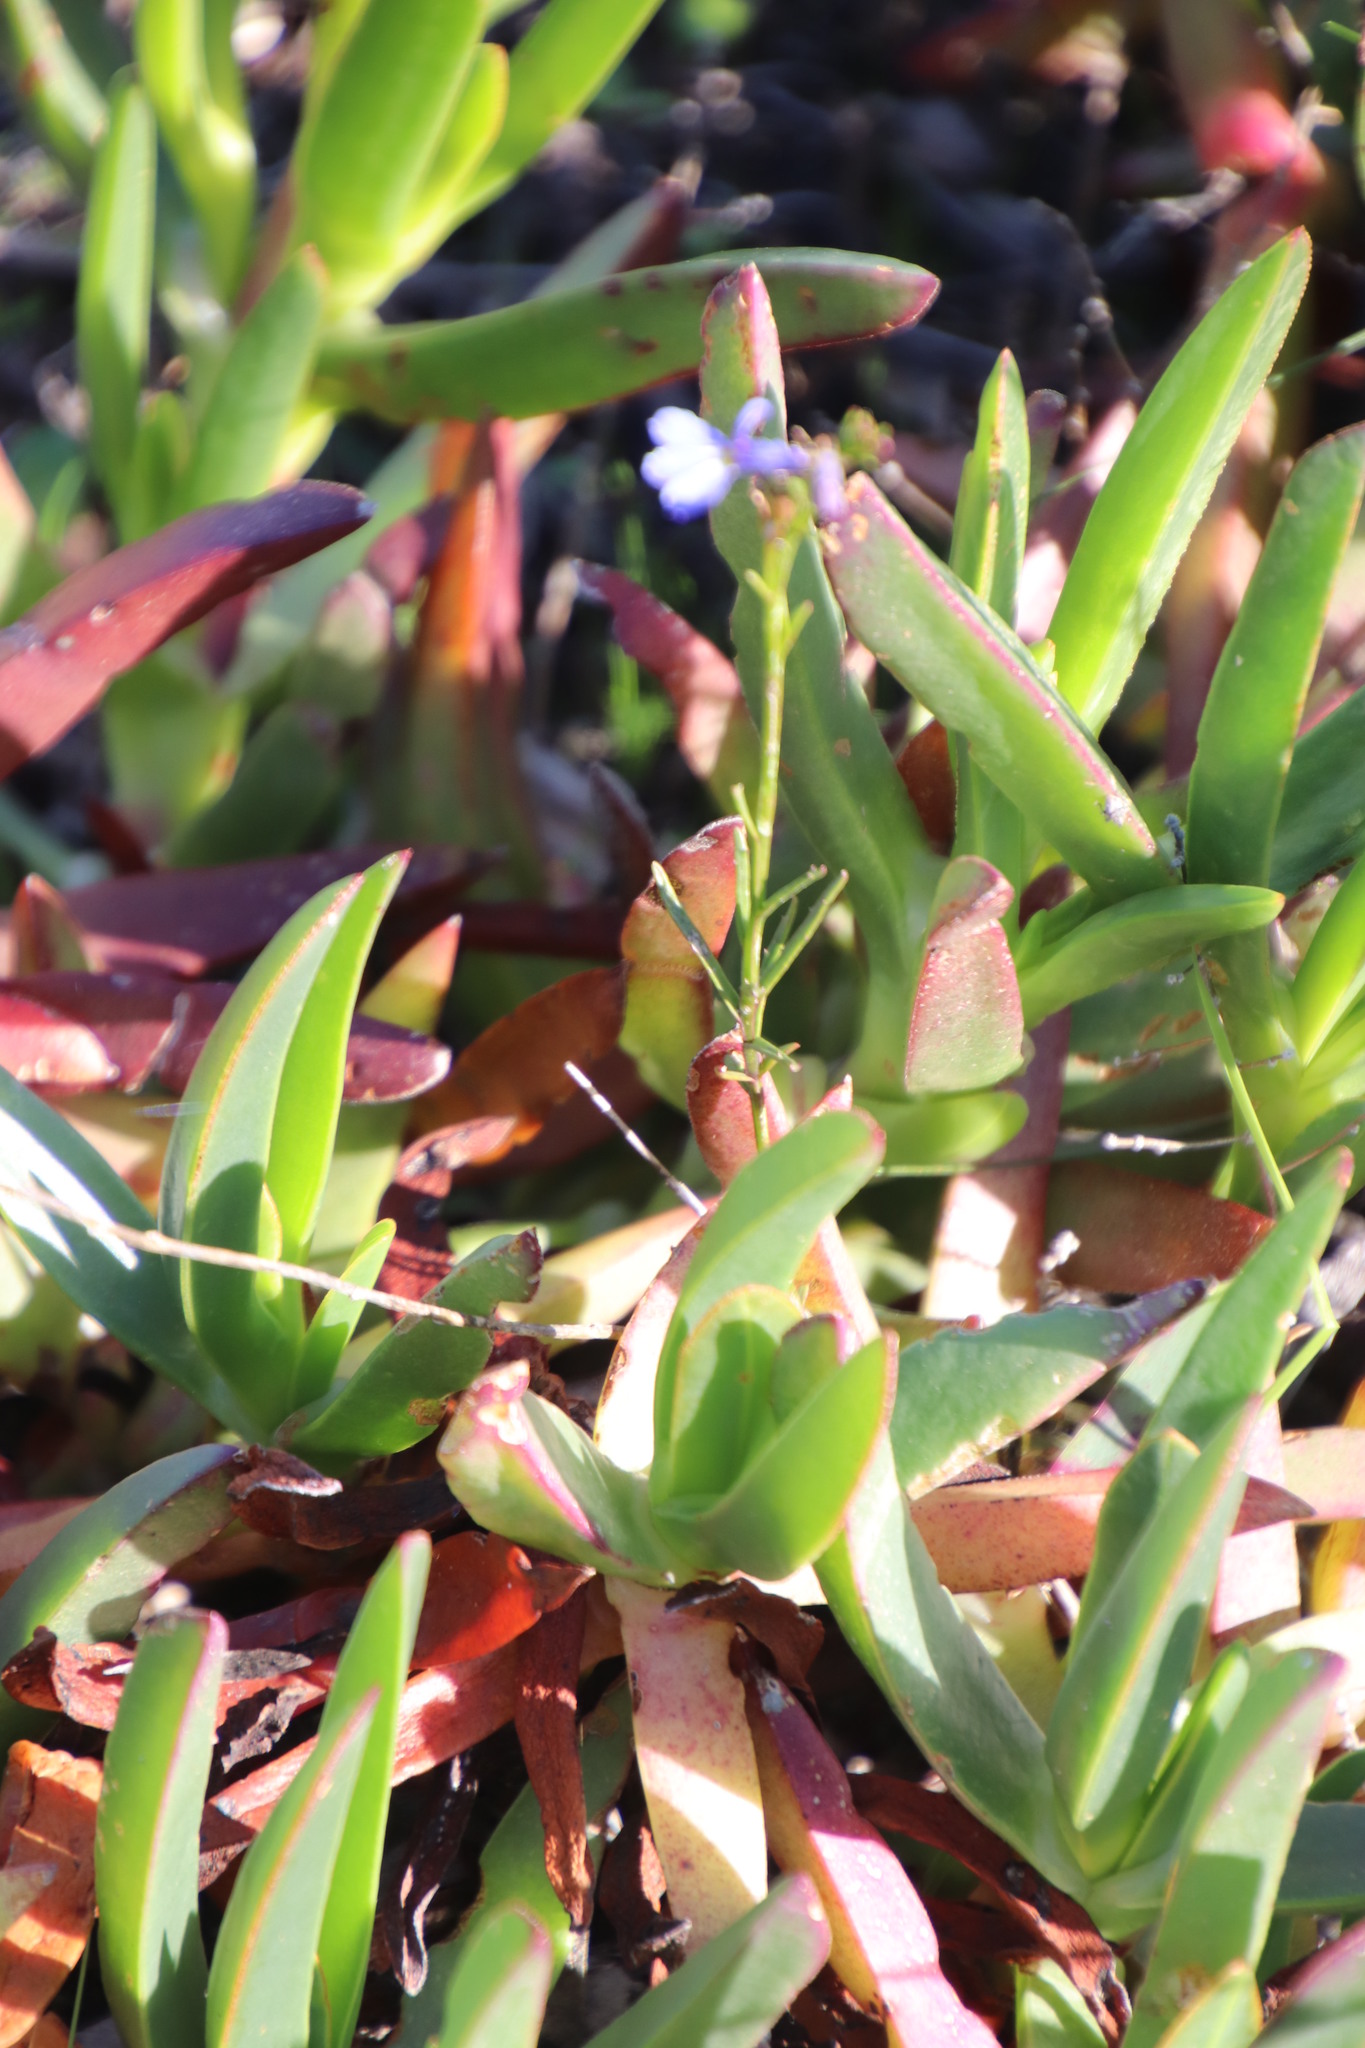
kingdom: Plantae
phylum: Tracheophyta
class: Magnoliopsida
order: Asterales
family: Campanulaceae
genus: Lobelia
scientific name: Lobelia comosa
